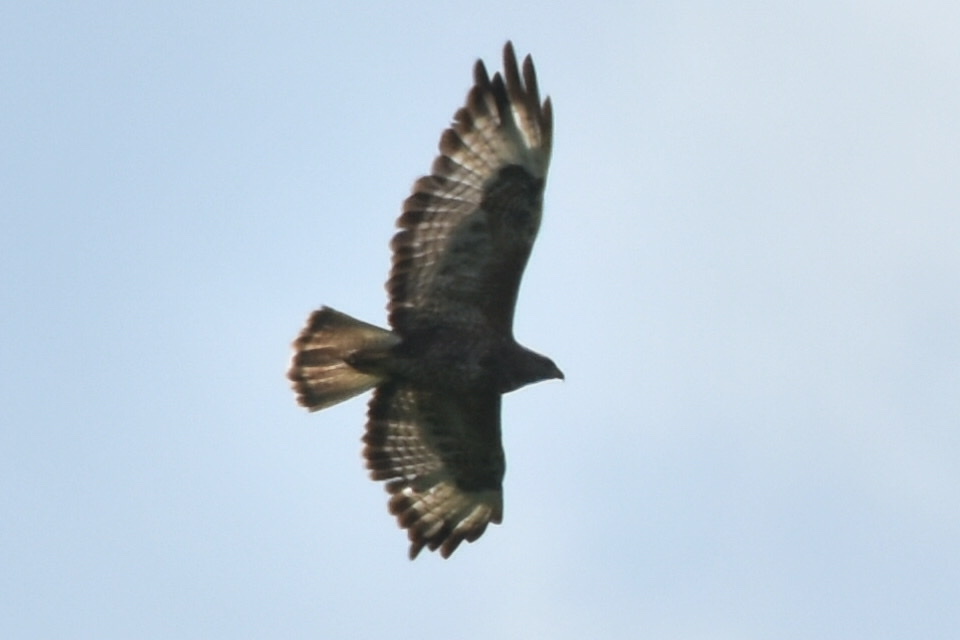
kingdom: Animalia
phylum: Chordata
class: Aves
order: Accipitriformes
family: Accipitridae
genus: Buteo
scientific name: Buteo buteo
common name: Common buzzard
